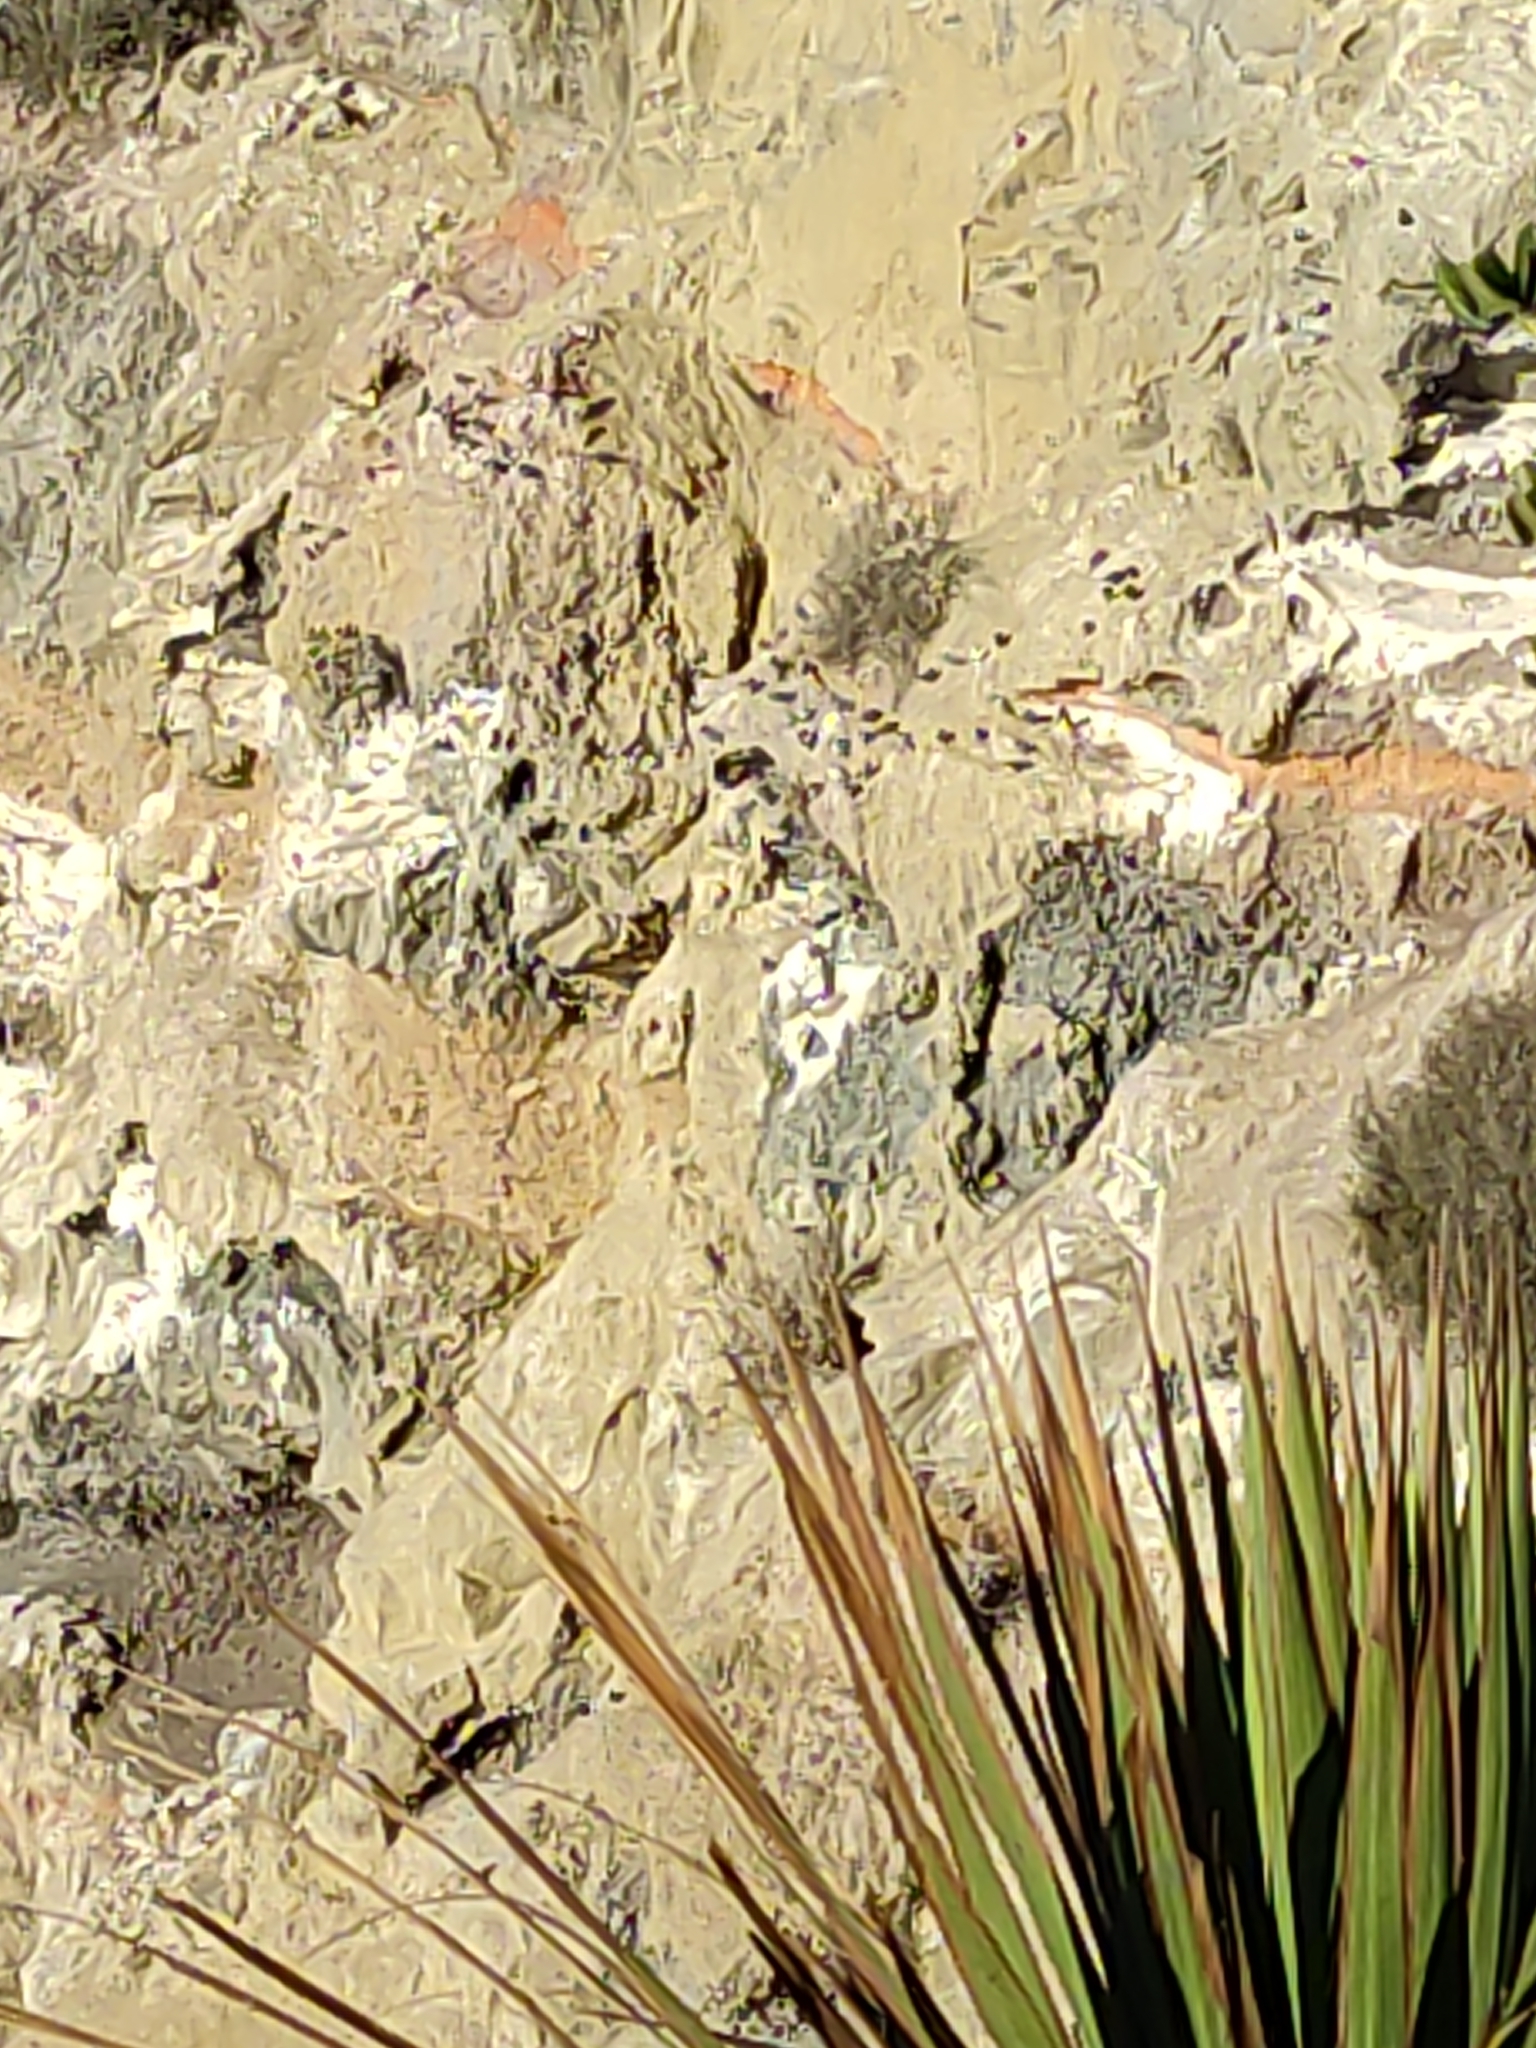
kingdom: Animalia
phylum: Chordata
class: Aves
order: Columbiformes
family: Columbidae
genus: Columba
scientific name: Columba livia
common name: Rock pigeon
